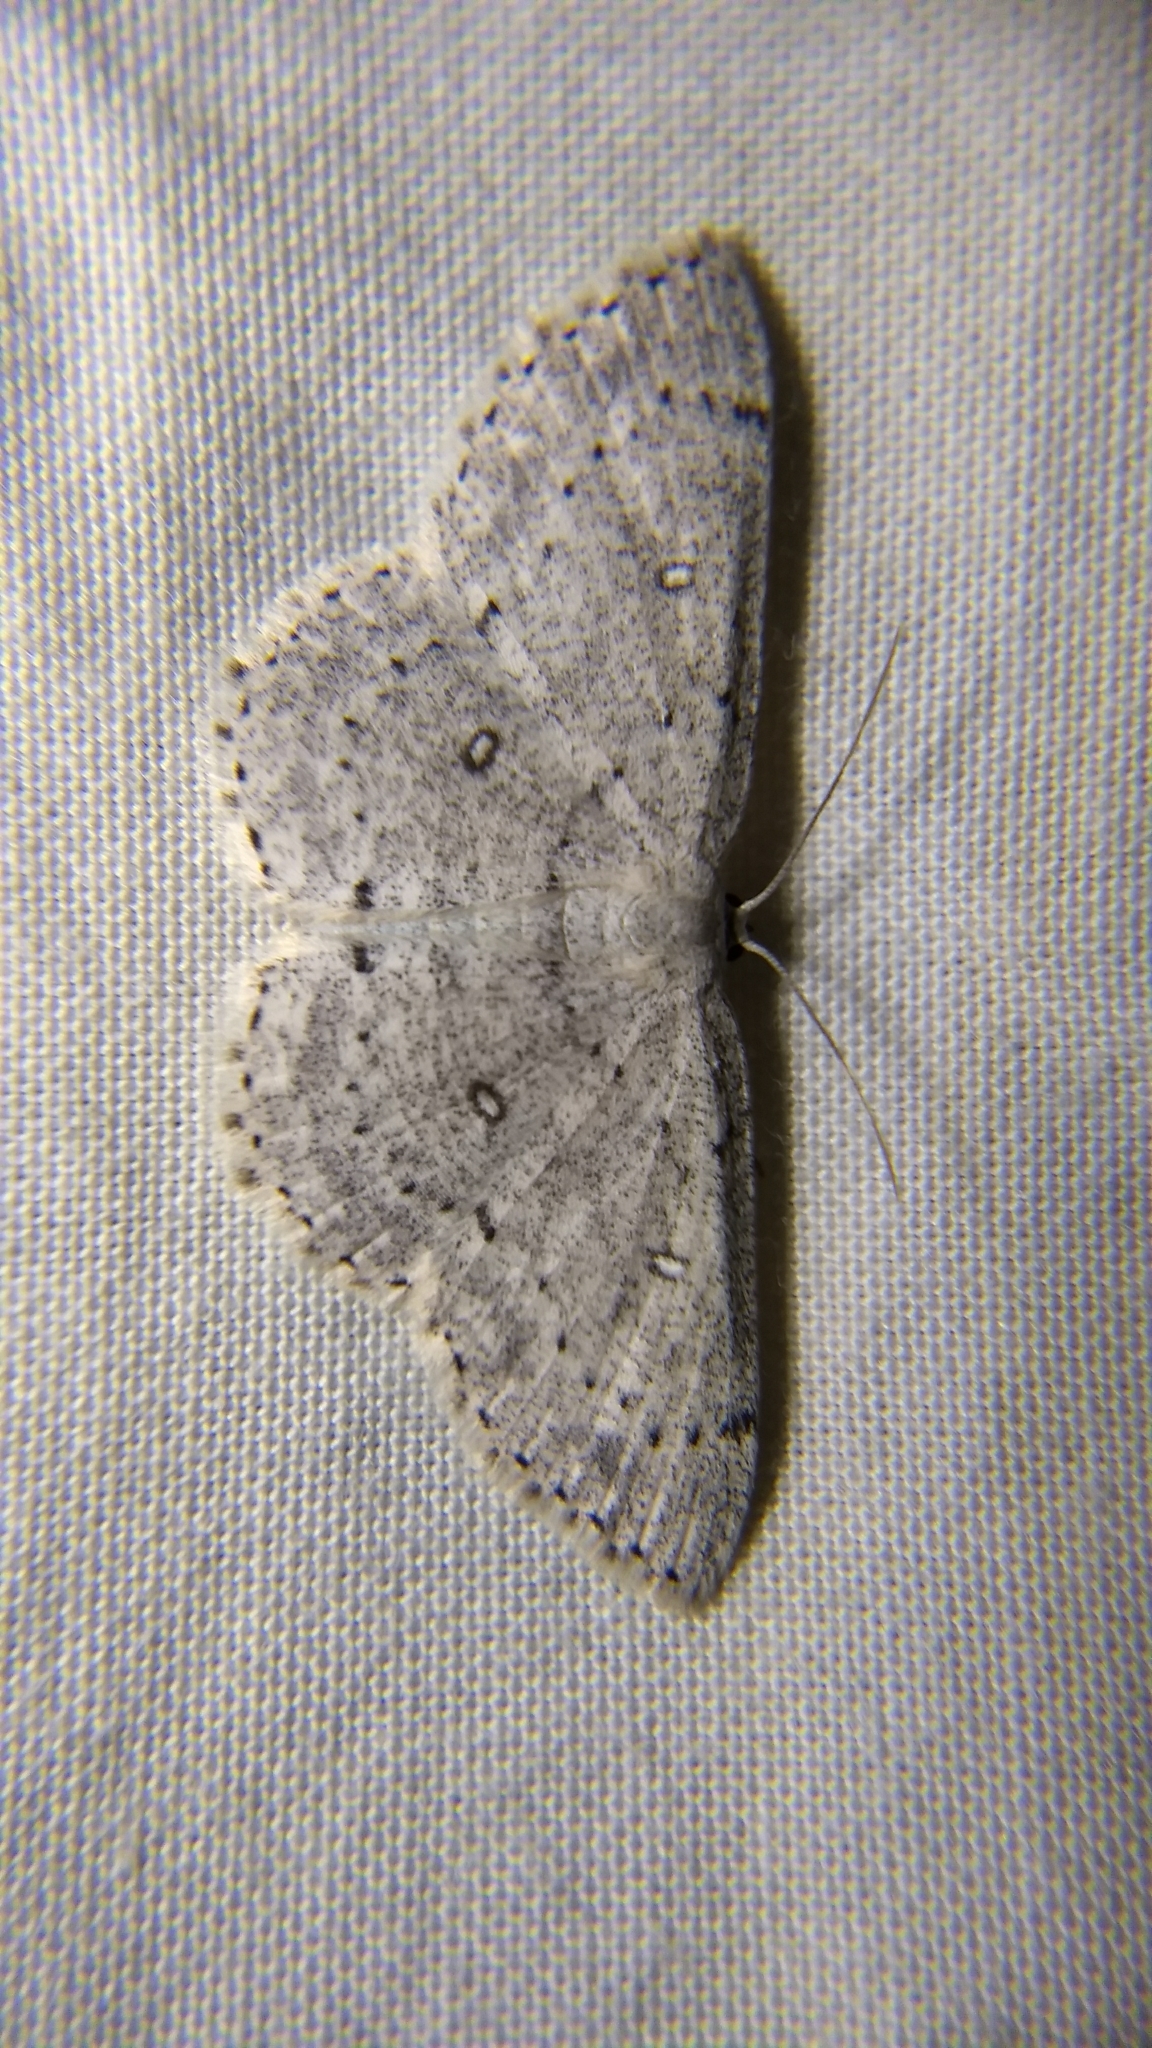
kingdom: Animalia
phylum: Arthropoda
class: Insecta
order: Lepidoptera
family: Geometridae
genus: Cyclophora
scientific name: Cyclophora pendulinaria
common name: Sweet fern geometer
